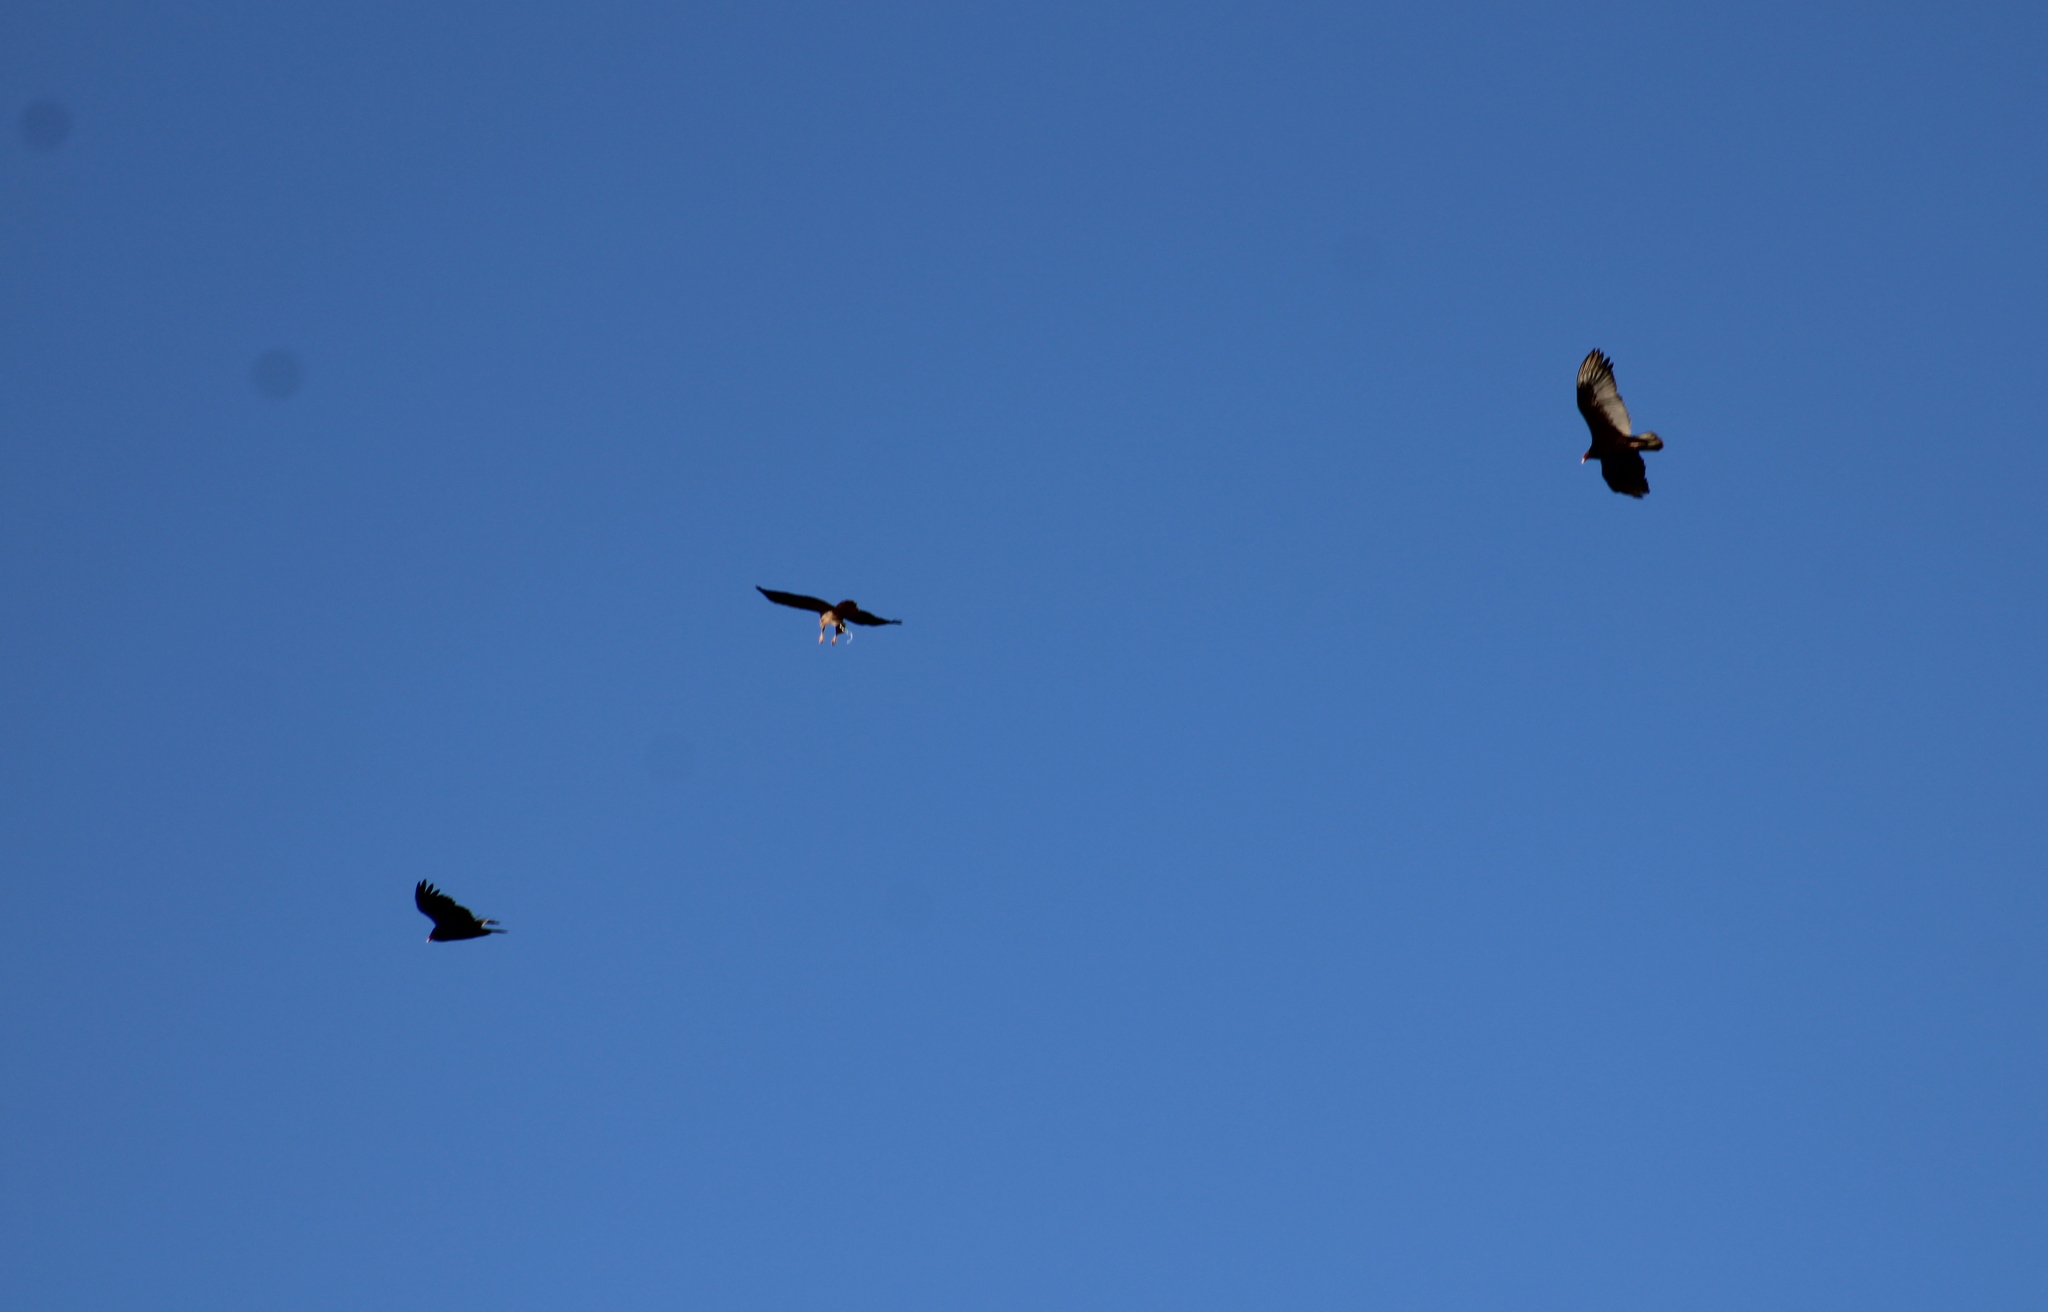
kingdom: Animalia
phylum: Chordata
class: Aves
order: Accipitriformes
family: Accipitridae
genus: Buteo
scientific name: Buteo jamaicensis
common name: Red-tailed hawk
